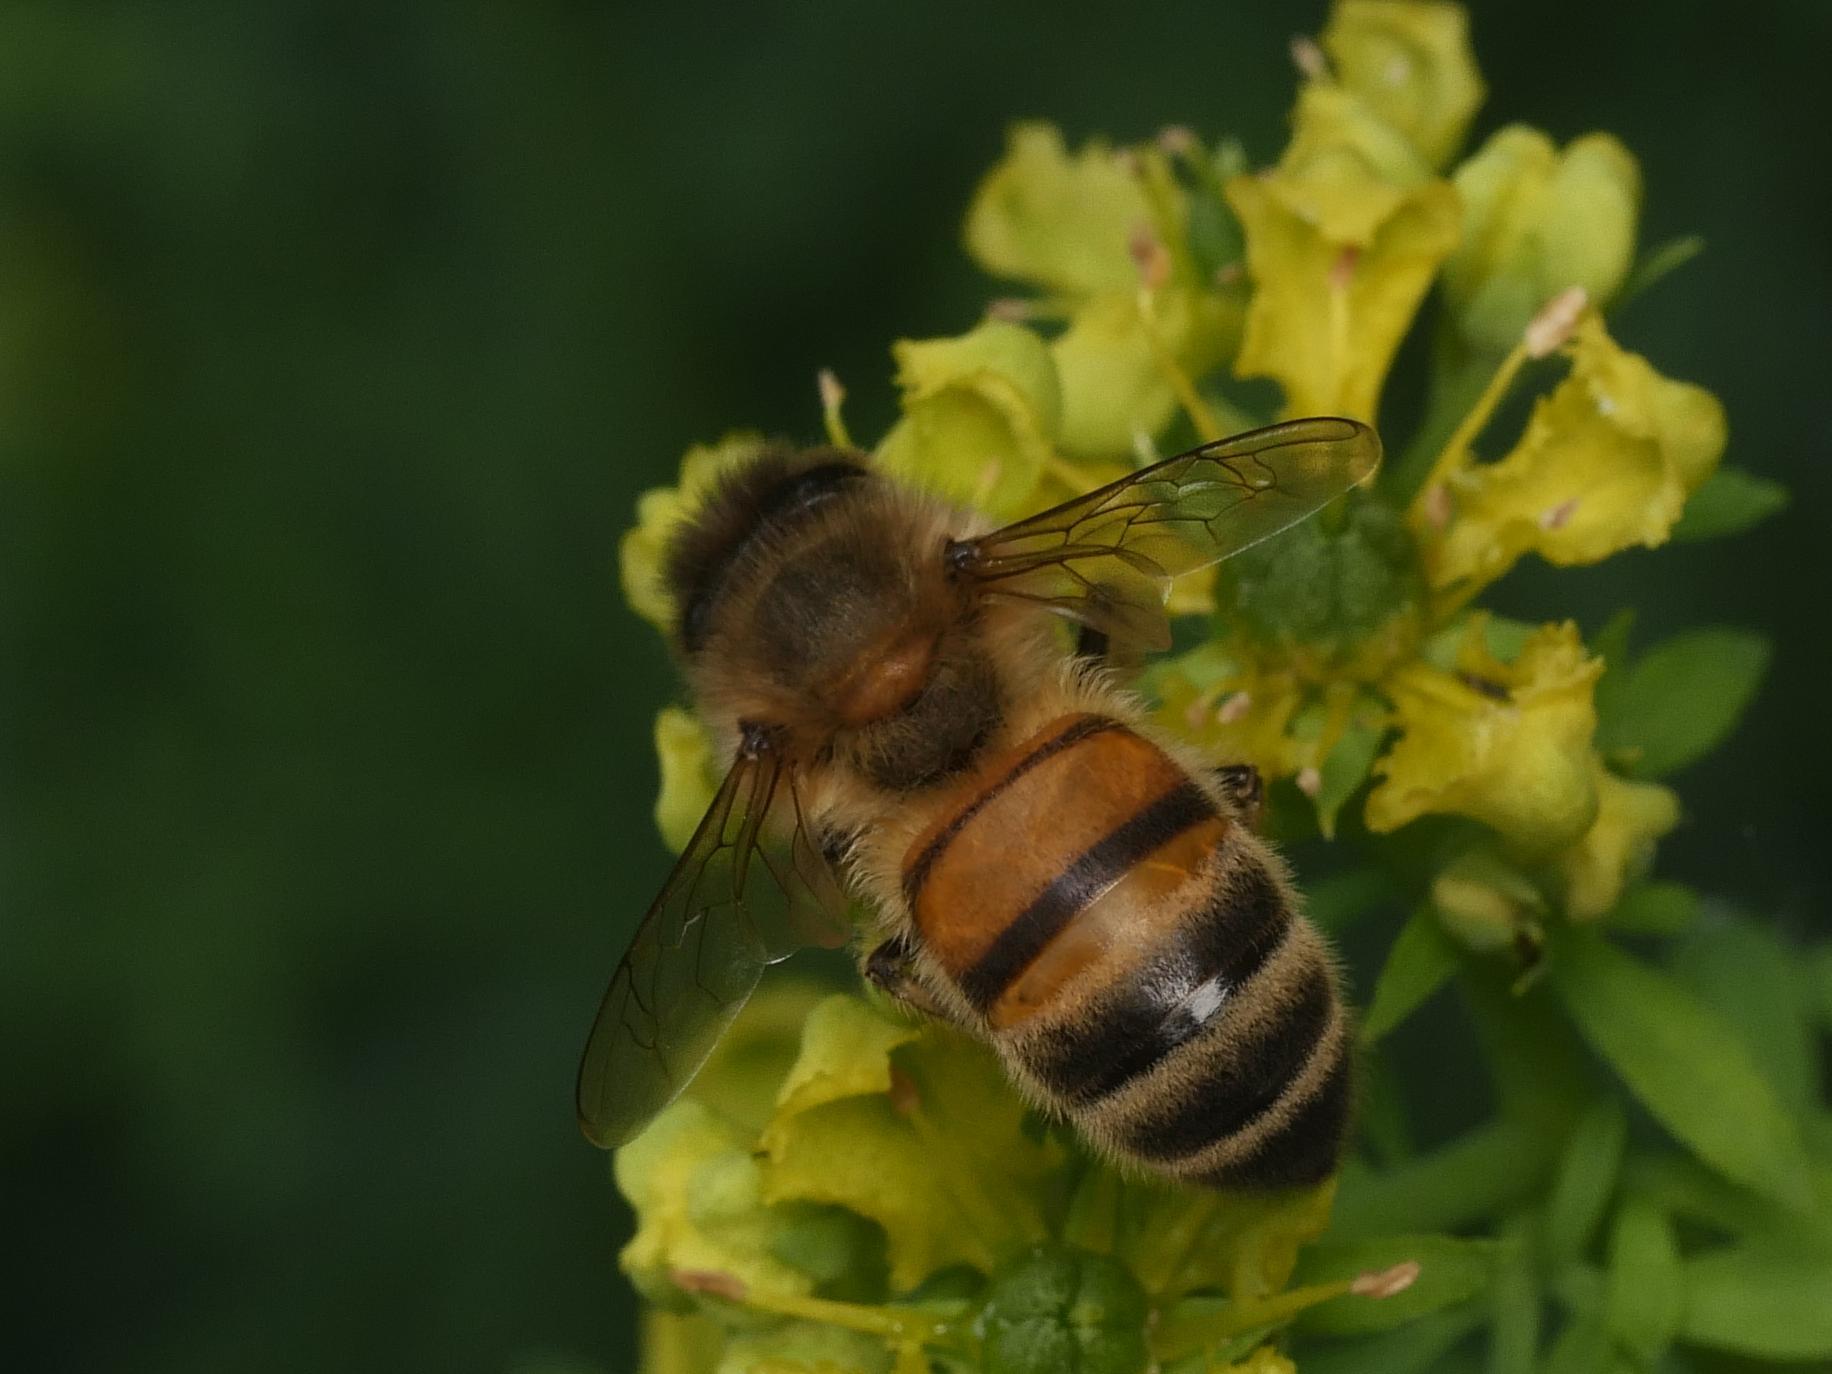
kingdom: Animalia
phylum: Arthropoda
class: Insecta
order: Hymenoptera
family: Apidae
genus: Apis
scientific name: Apis mellifera
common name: Honey bee
